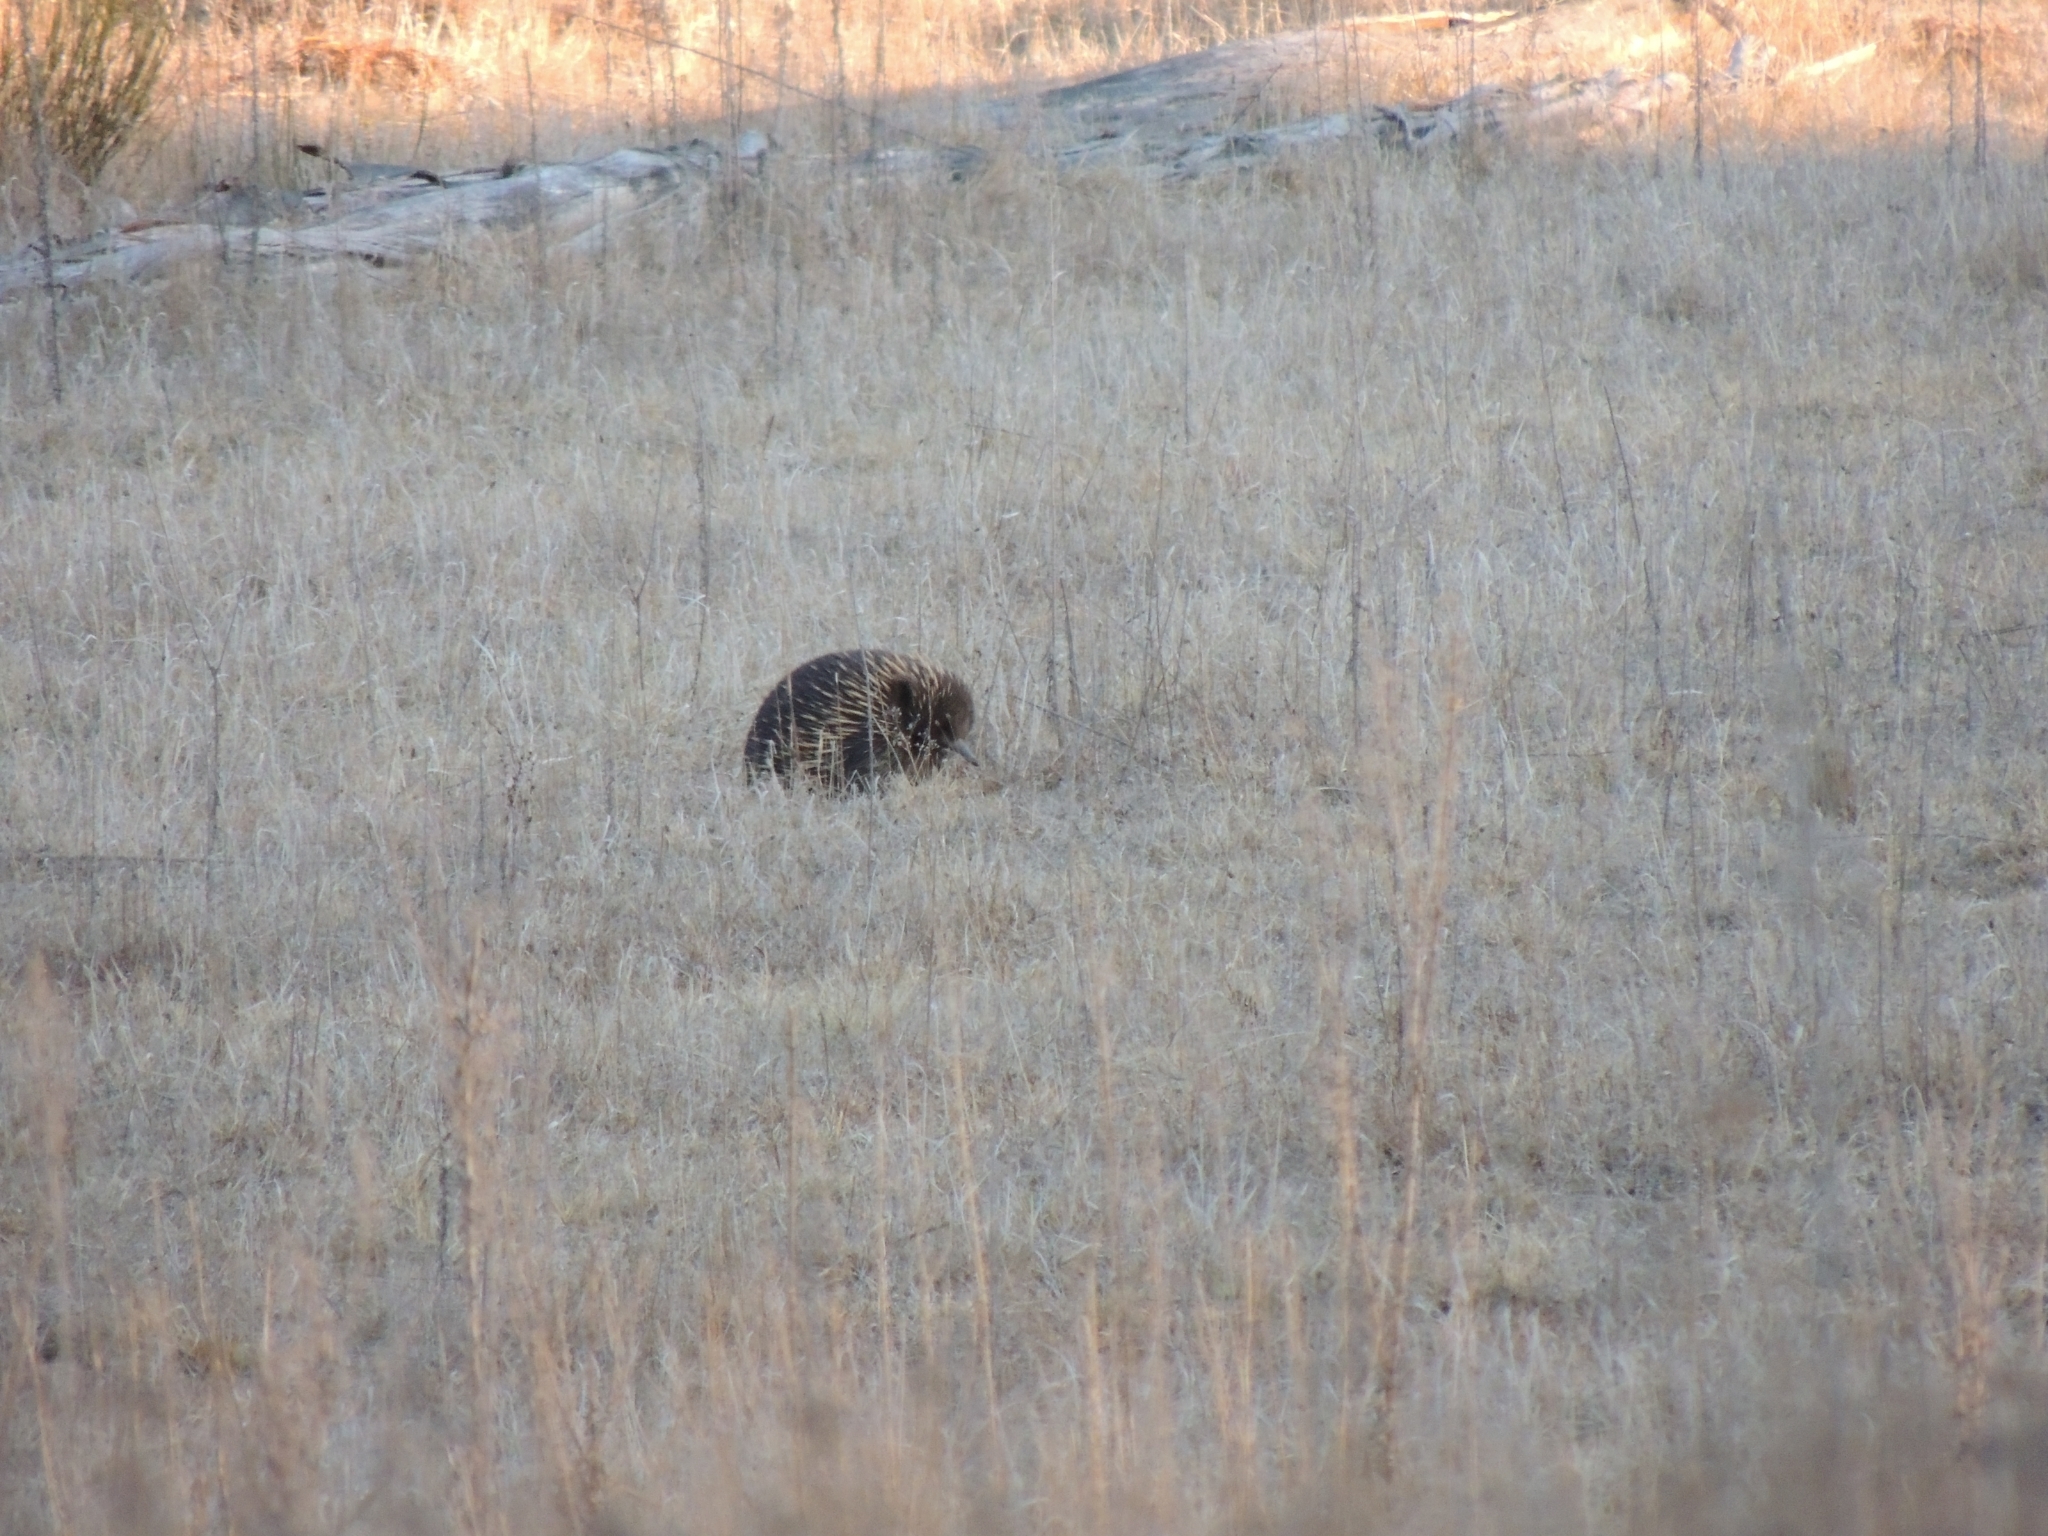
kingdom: Animalia
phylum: Chordata
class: Mammalia
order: Monotremata
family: Tachyglossidae
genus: Tachyglossus
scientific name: Tachyglossus aculeatus
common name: Short-beaked echidna
